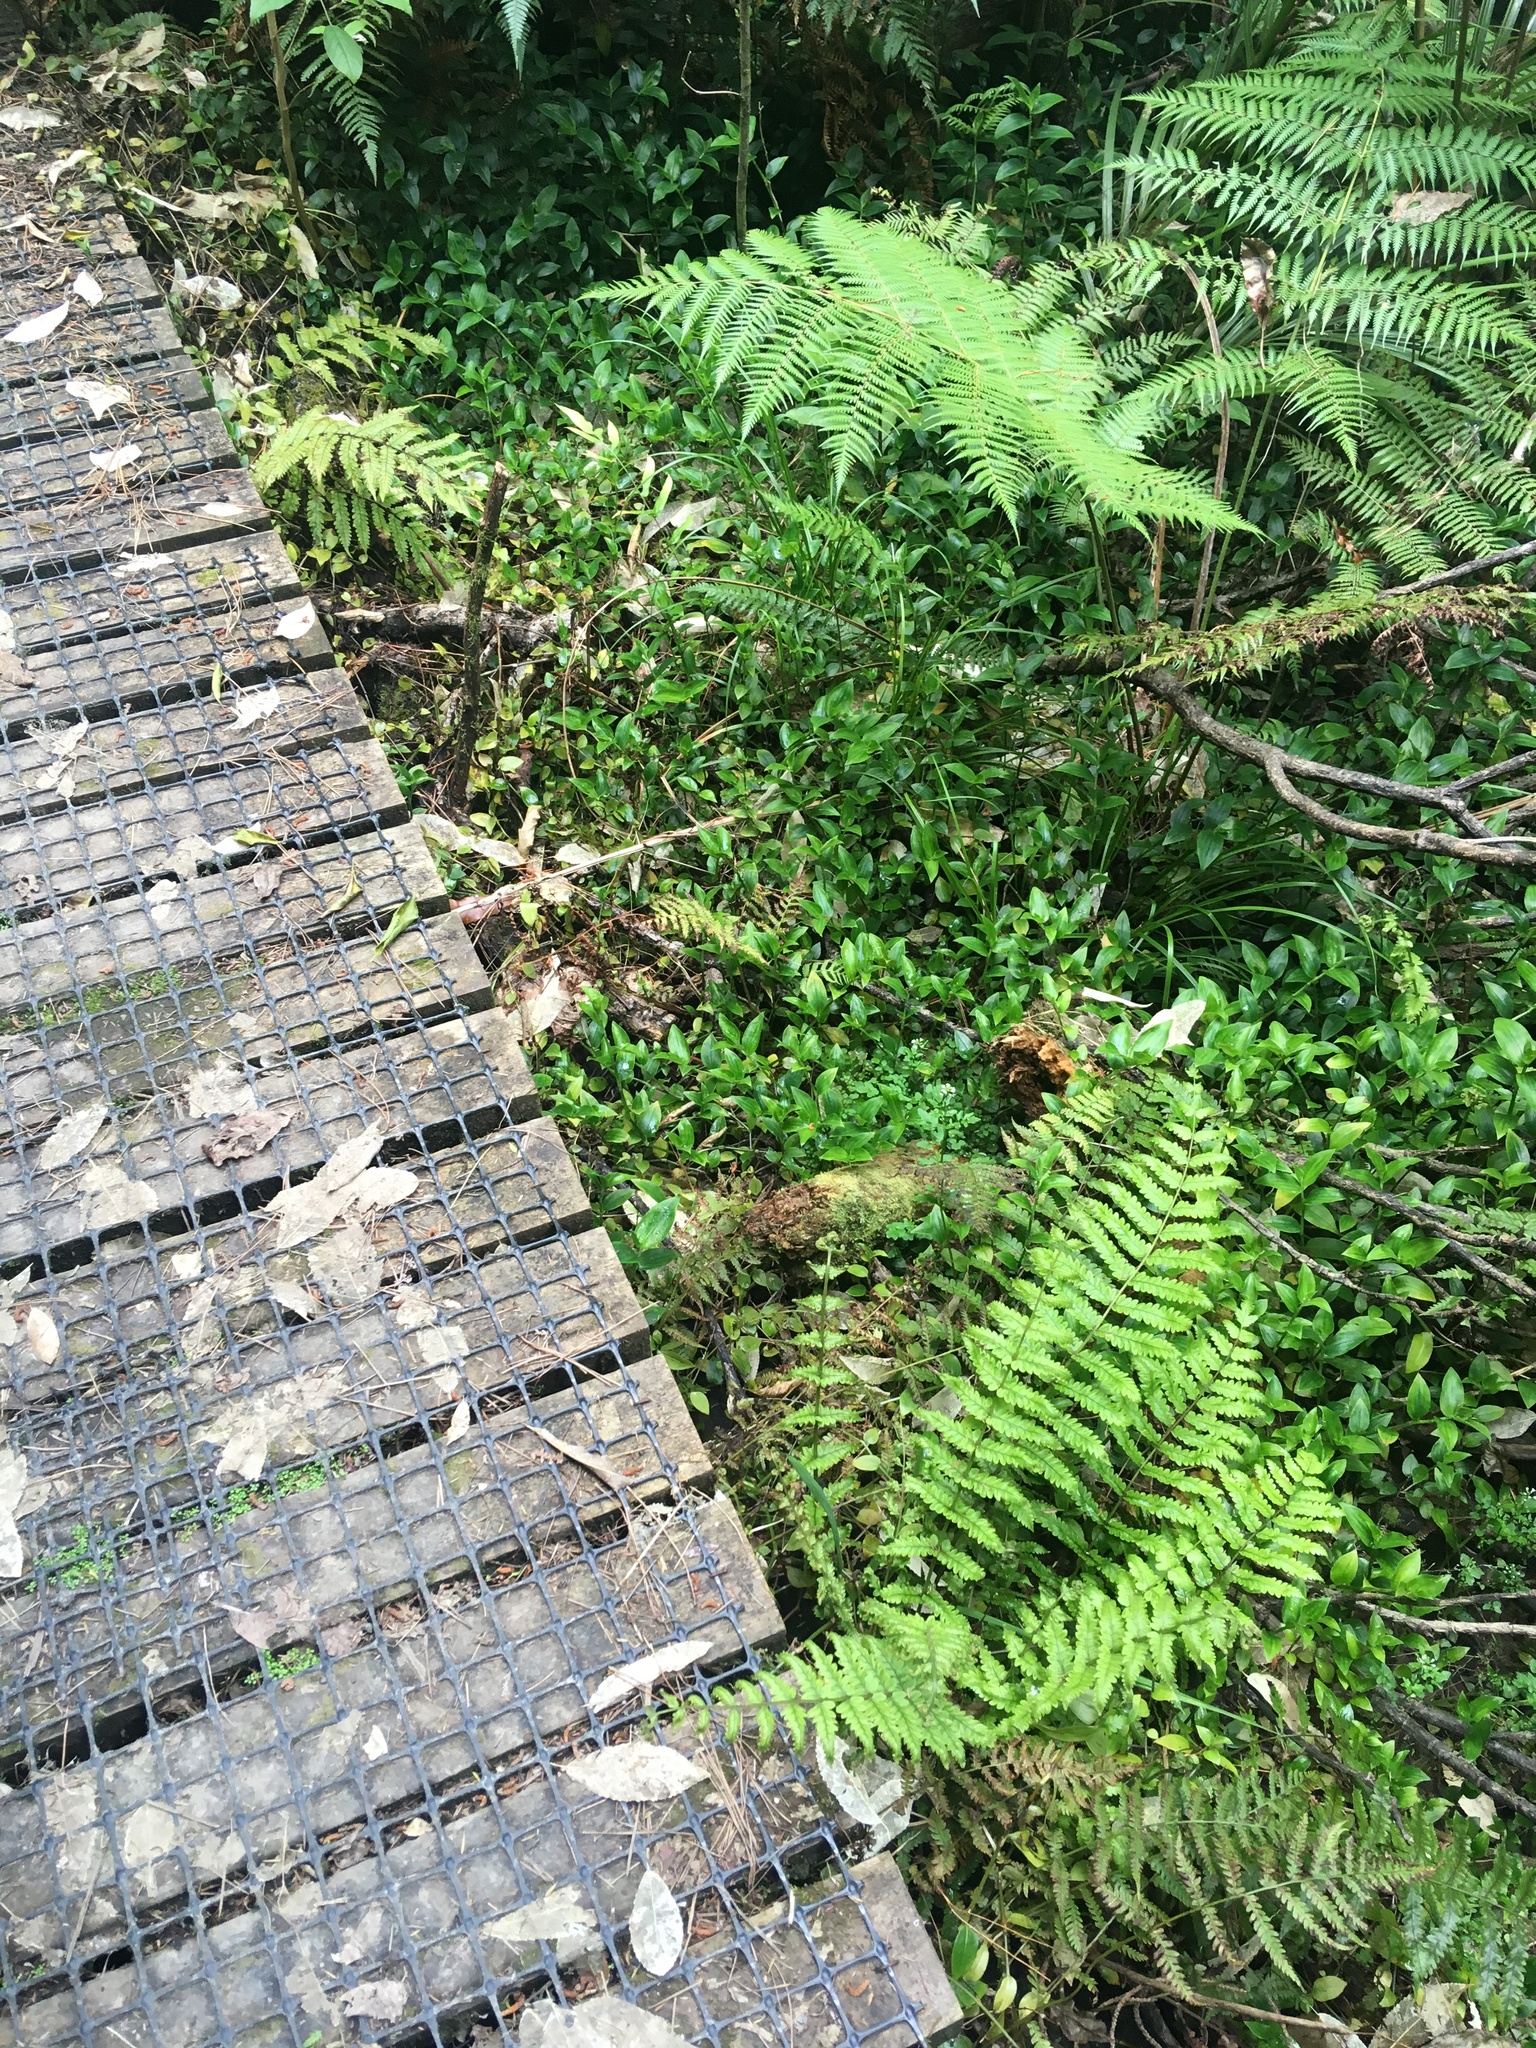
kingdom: Plantae
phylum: Tracheophyta
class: Liliopsida
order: Commelinales
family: Commelinaceae
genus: Tradescantia
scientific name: Tradescantia fluminensis
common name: Wandering-jew
